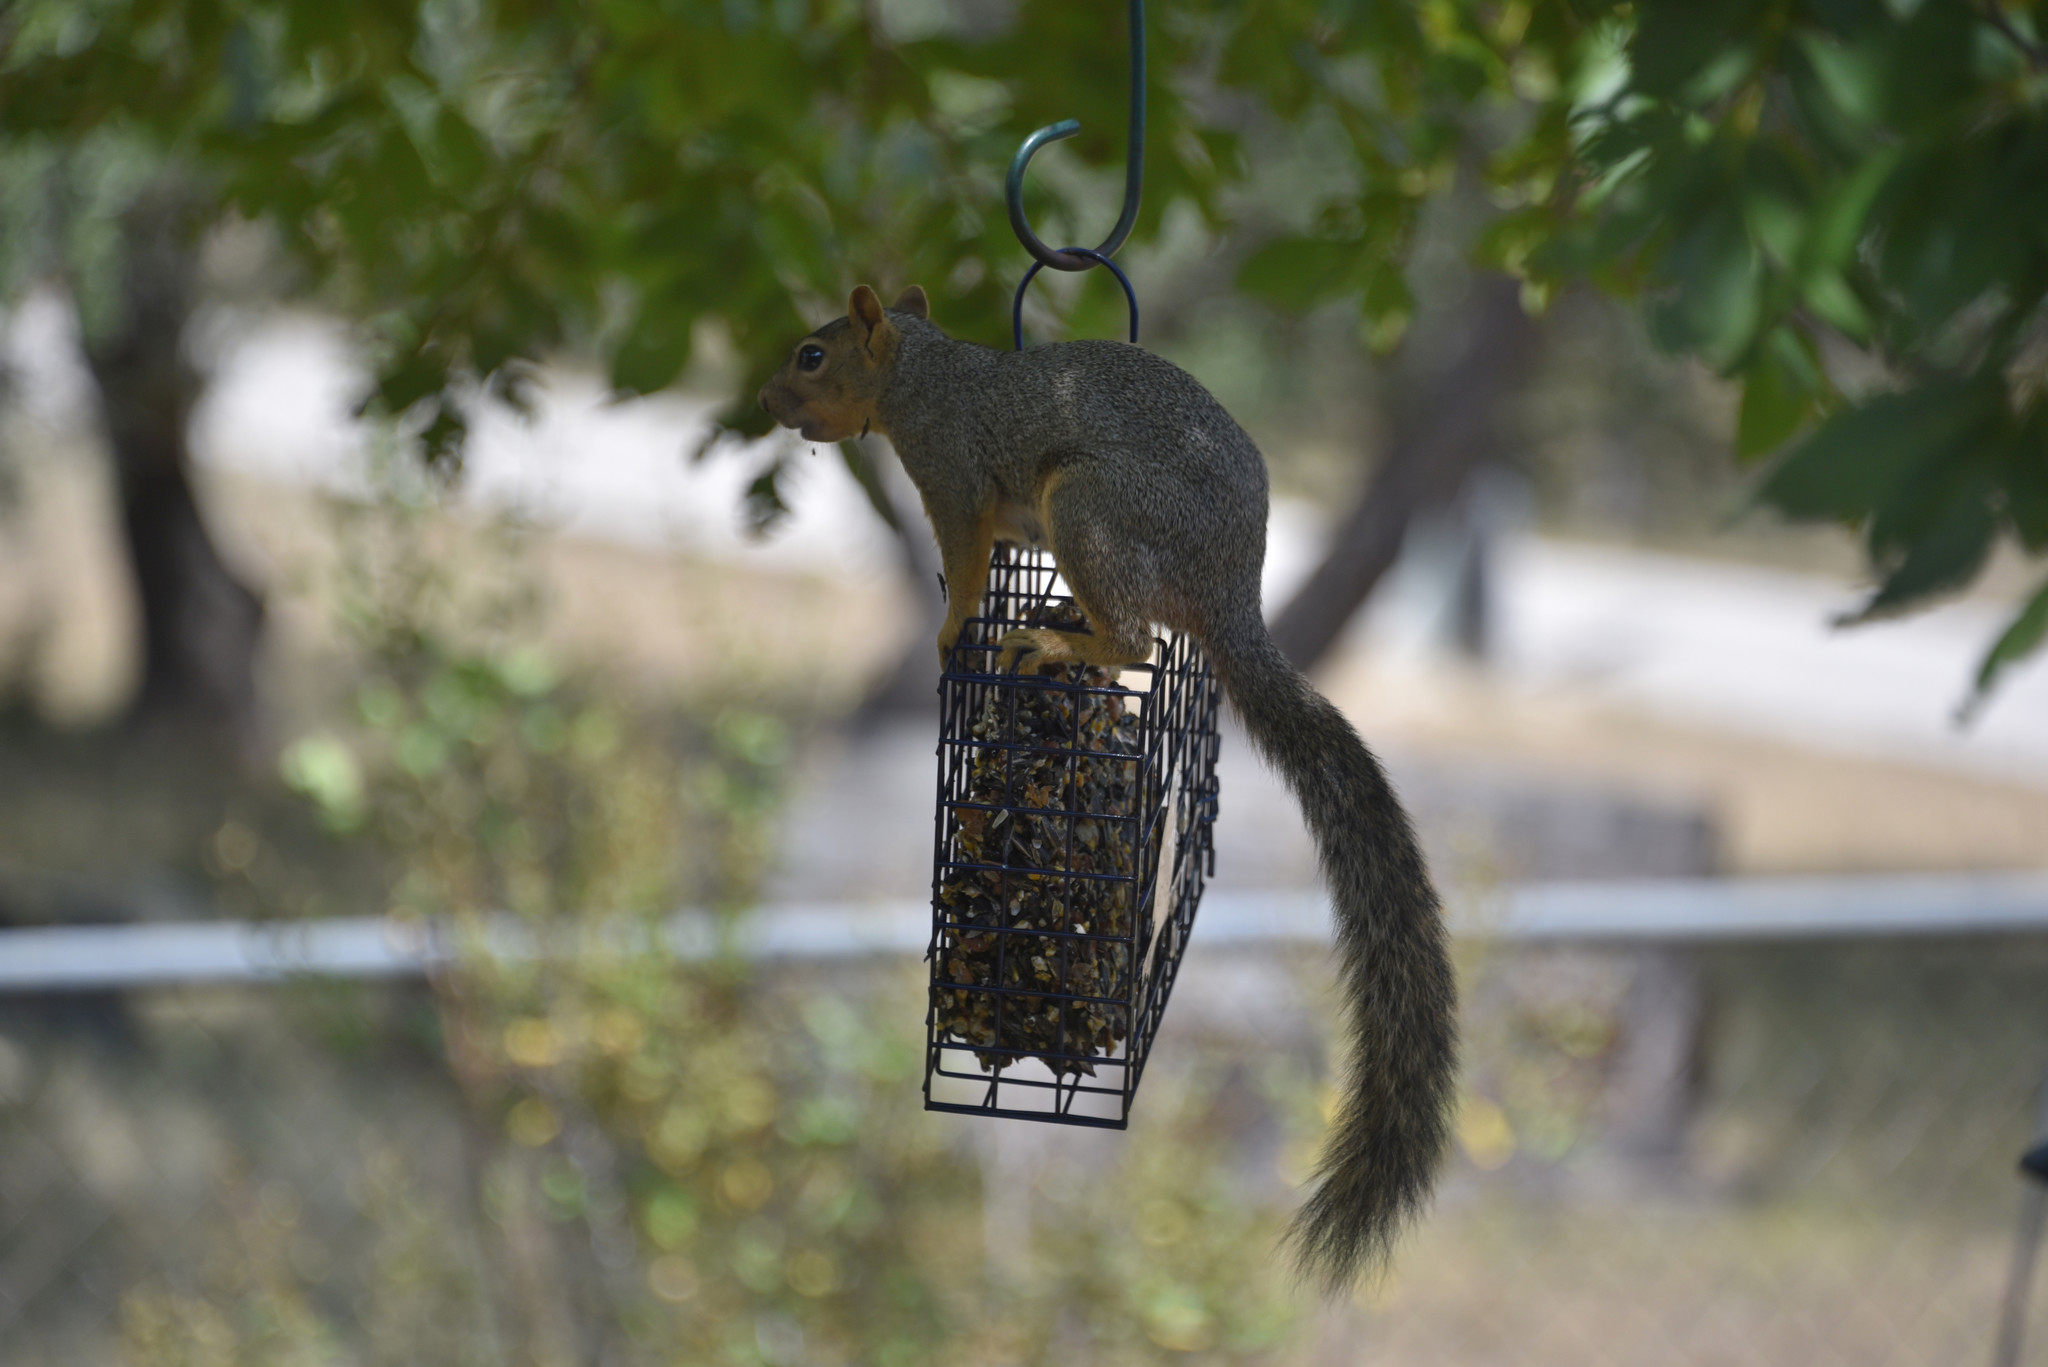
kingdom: Animalia
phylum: Chordata
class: Mammalia
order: Rodentia
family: Sciuridae
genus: Sciurus
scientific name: Sciurus niger
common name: Fox squirrel
